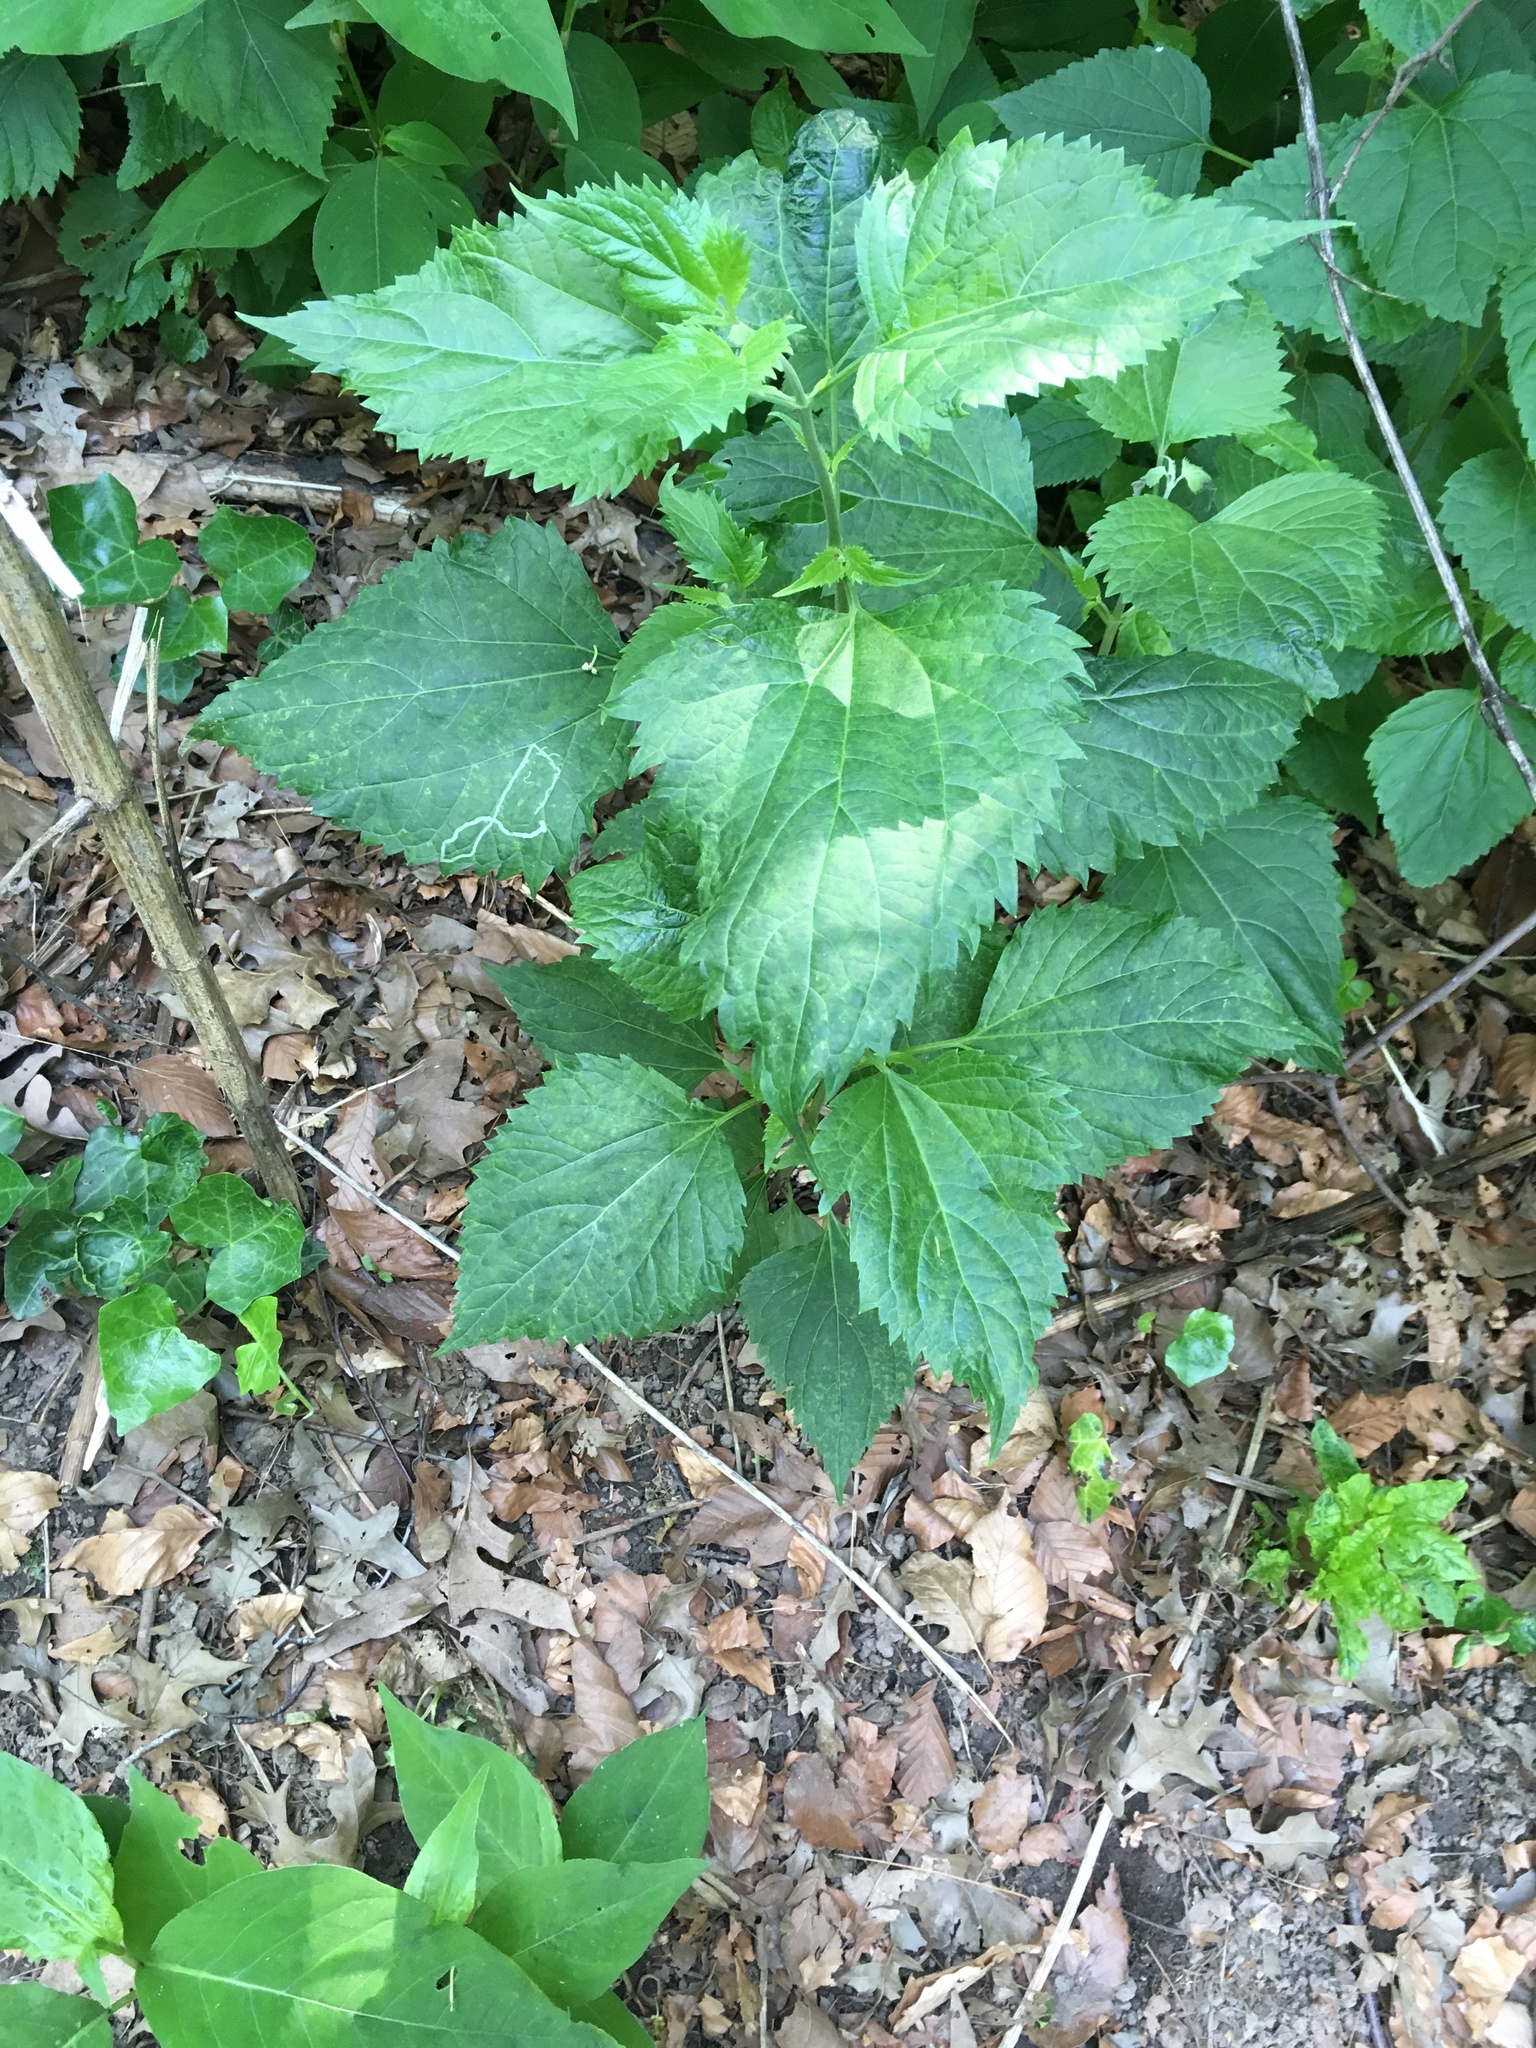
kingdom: Plantae
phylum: Tracheophyta
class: Magnoliopsida
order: Asterales
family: Asteraceae
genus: Ageratina
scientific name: Ageratina altissima
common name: White snakeroot
